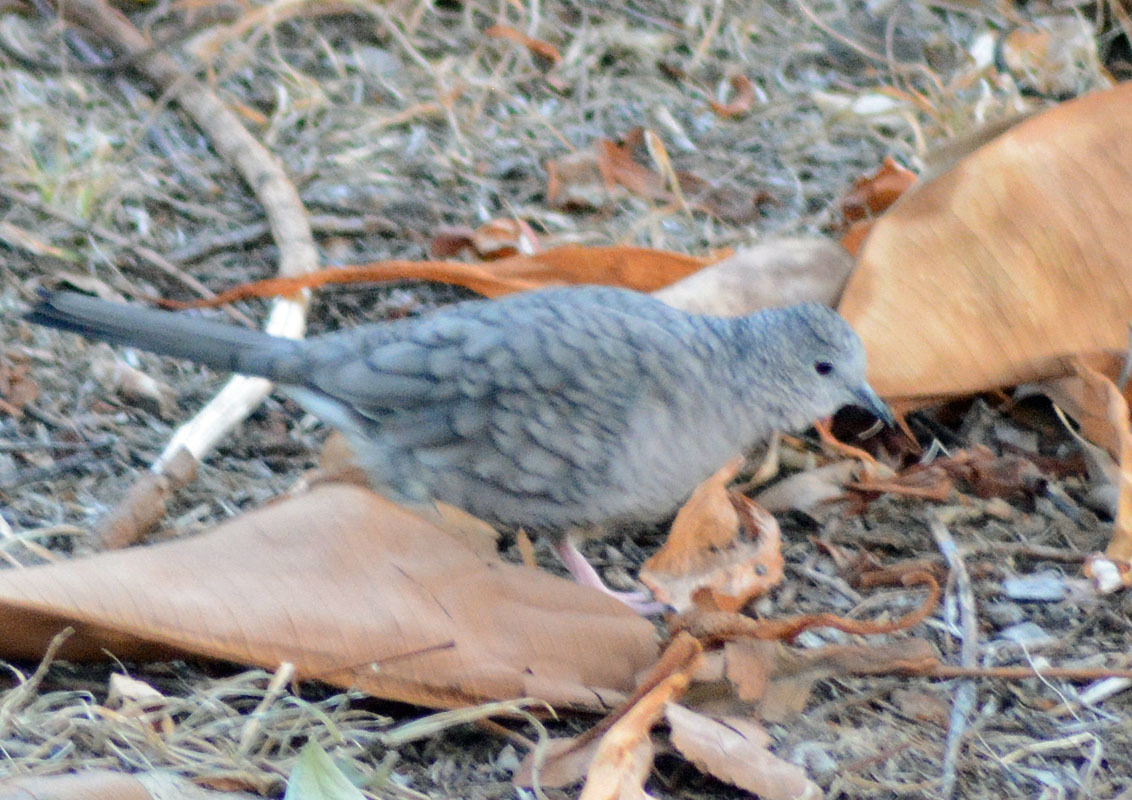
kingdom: Animalia
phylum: Chordata
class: Aves
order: Columbiformes
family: Columbidae
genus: Columbina
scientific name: Columbina inca
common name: Inca dove
